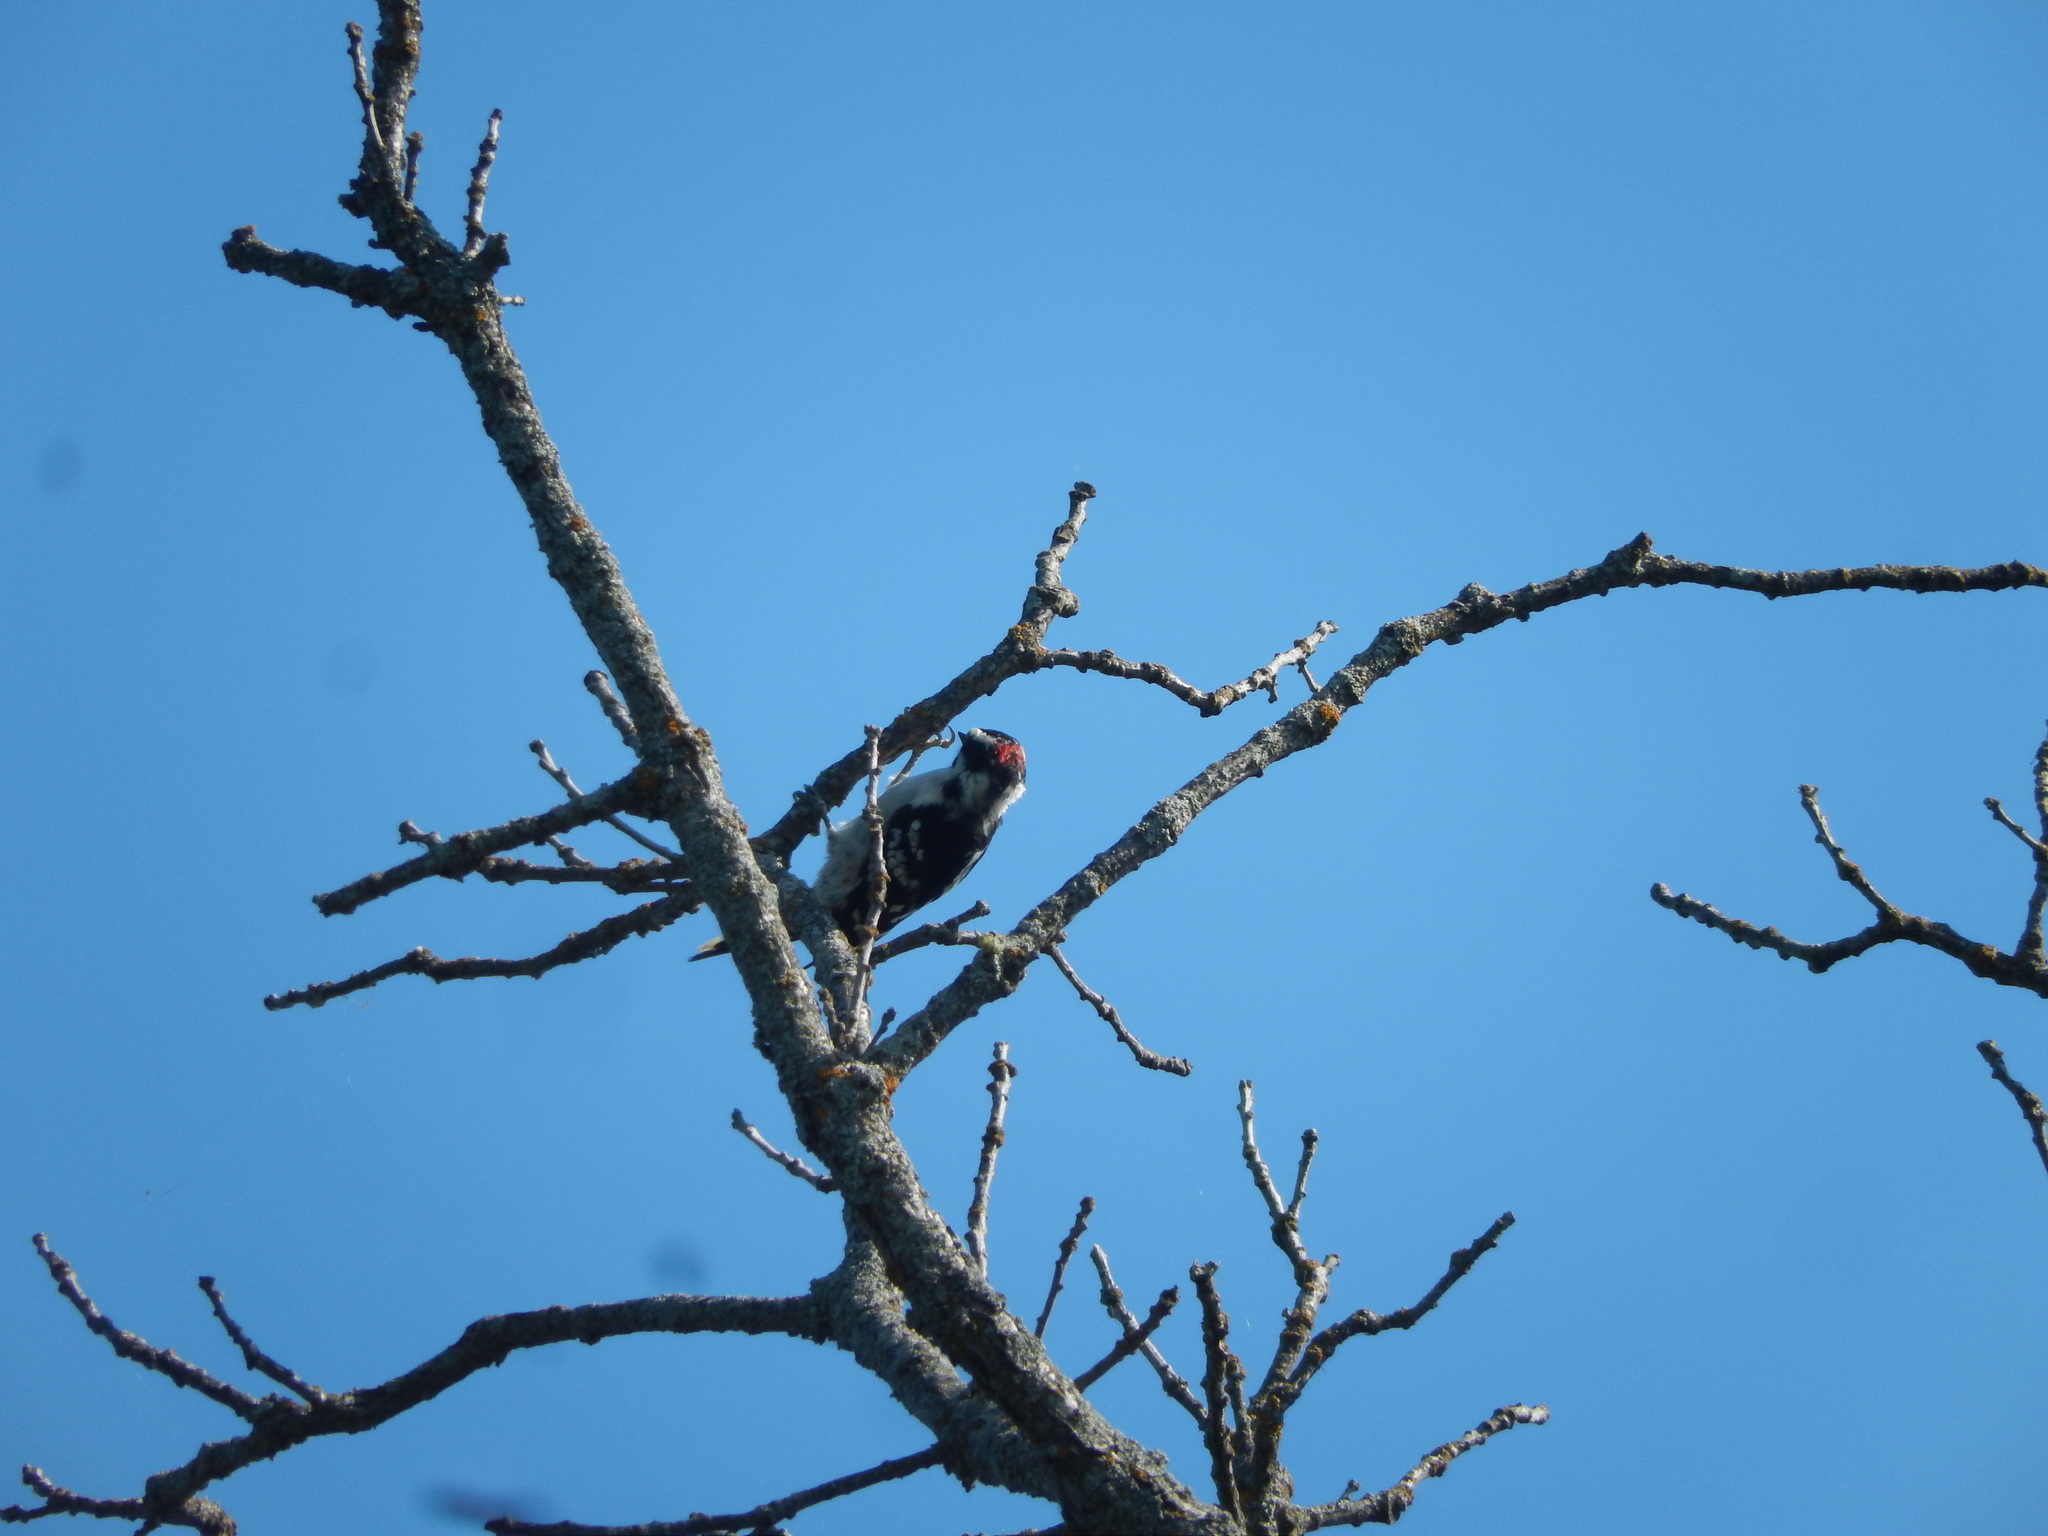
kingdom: Animalia
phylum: Chordata
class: Aves
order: Piciformes
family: Picidae
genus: Dryobates
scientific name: Dryobates pubescens
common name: Downy woodpecker
